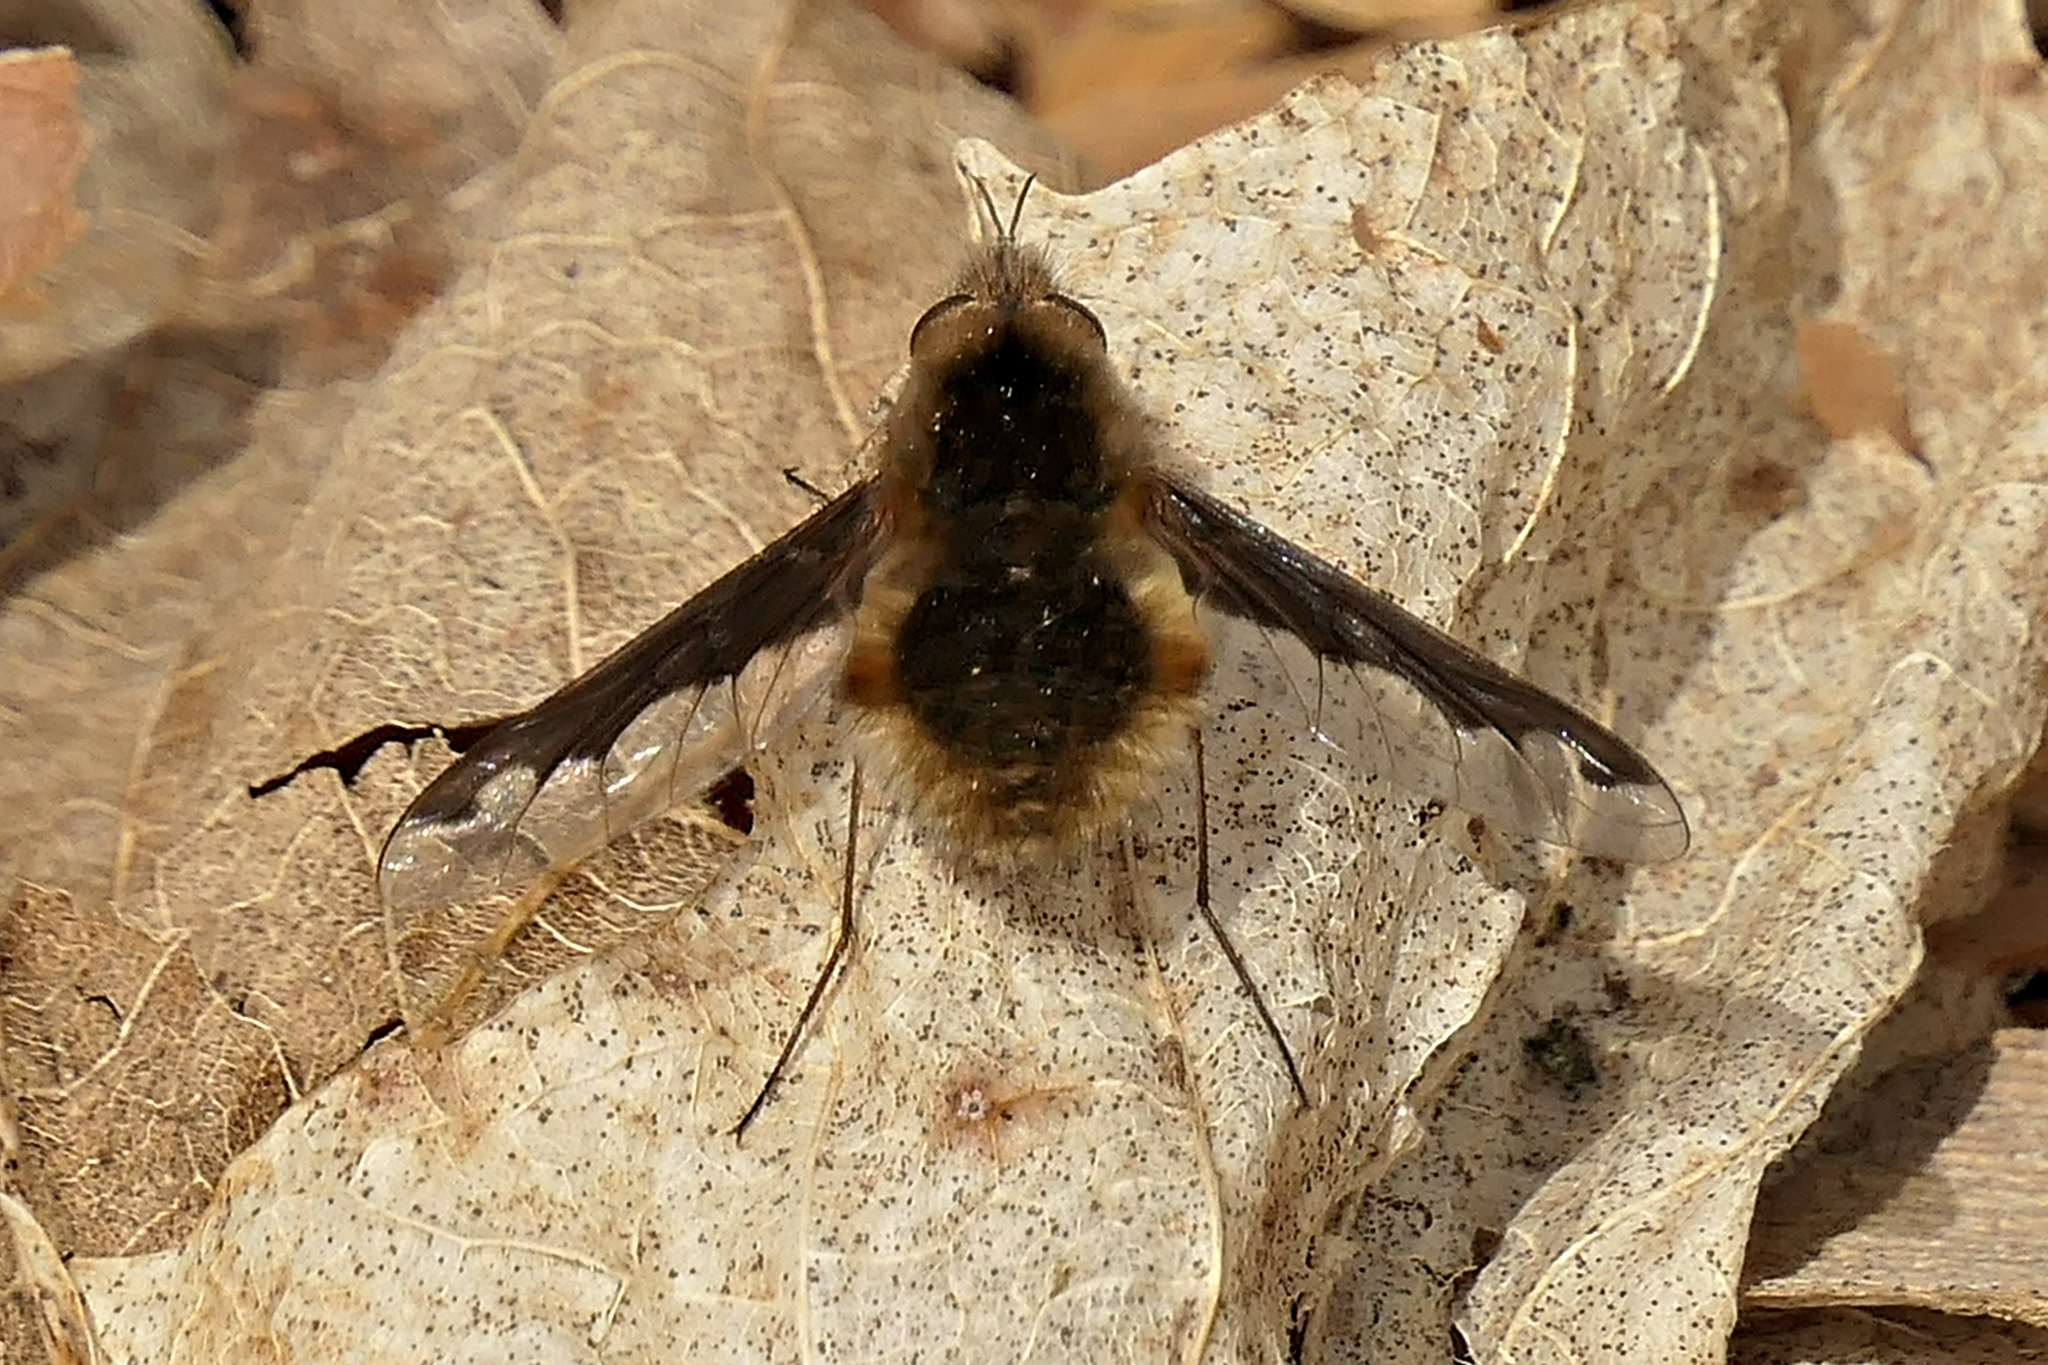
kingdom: Animalia
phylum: Arthropoda
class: Insecta
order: Diptera
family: Bombyliidae
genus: Bombylius
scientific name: Bombylius major
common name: Bee fly
